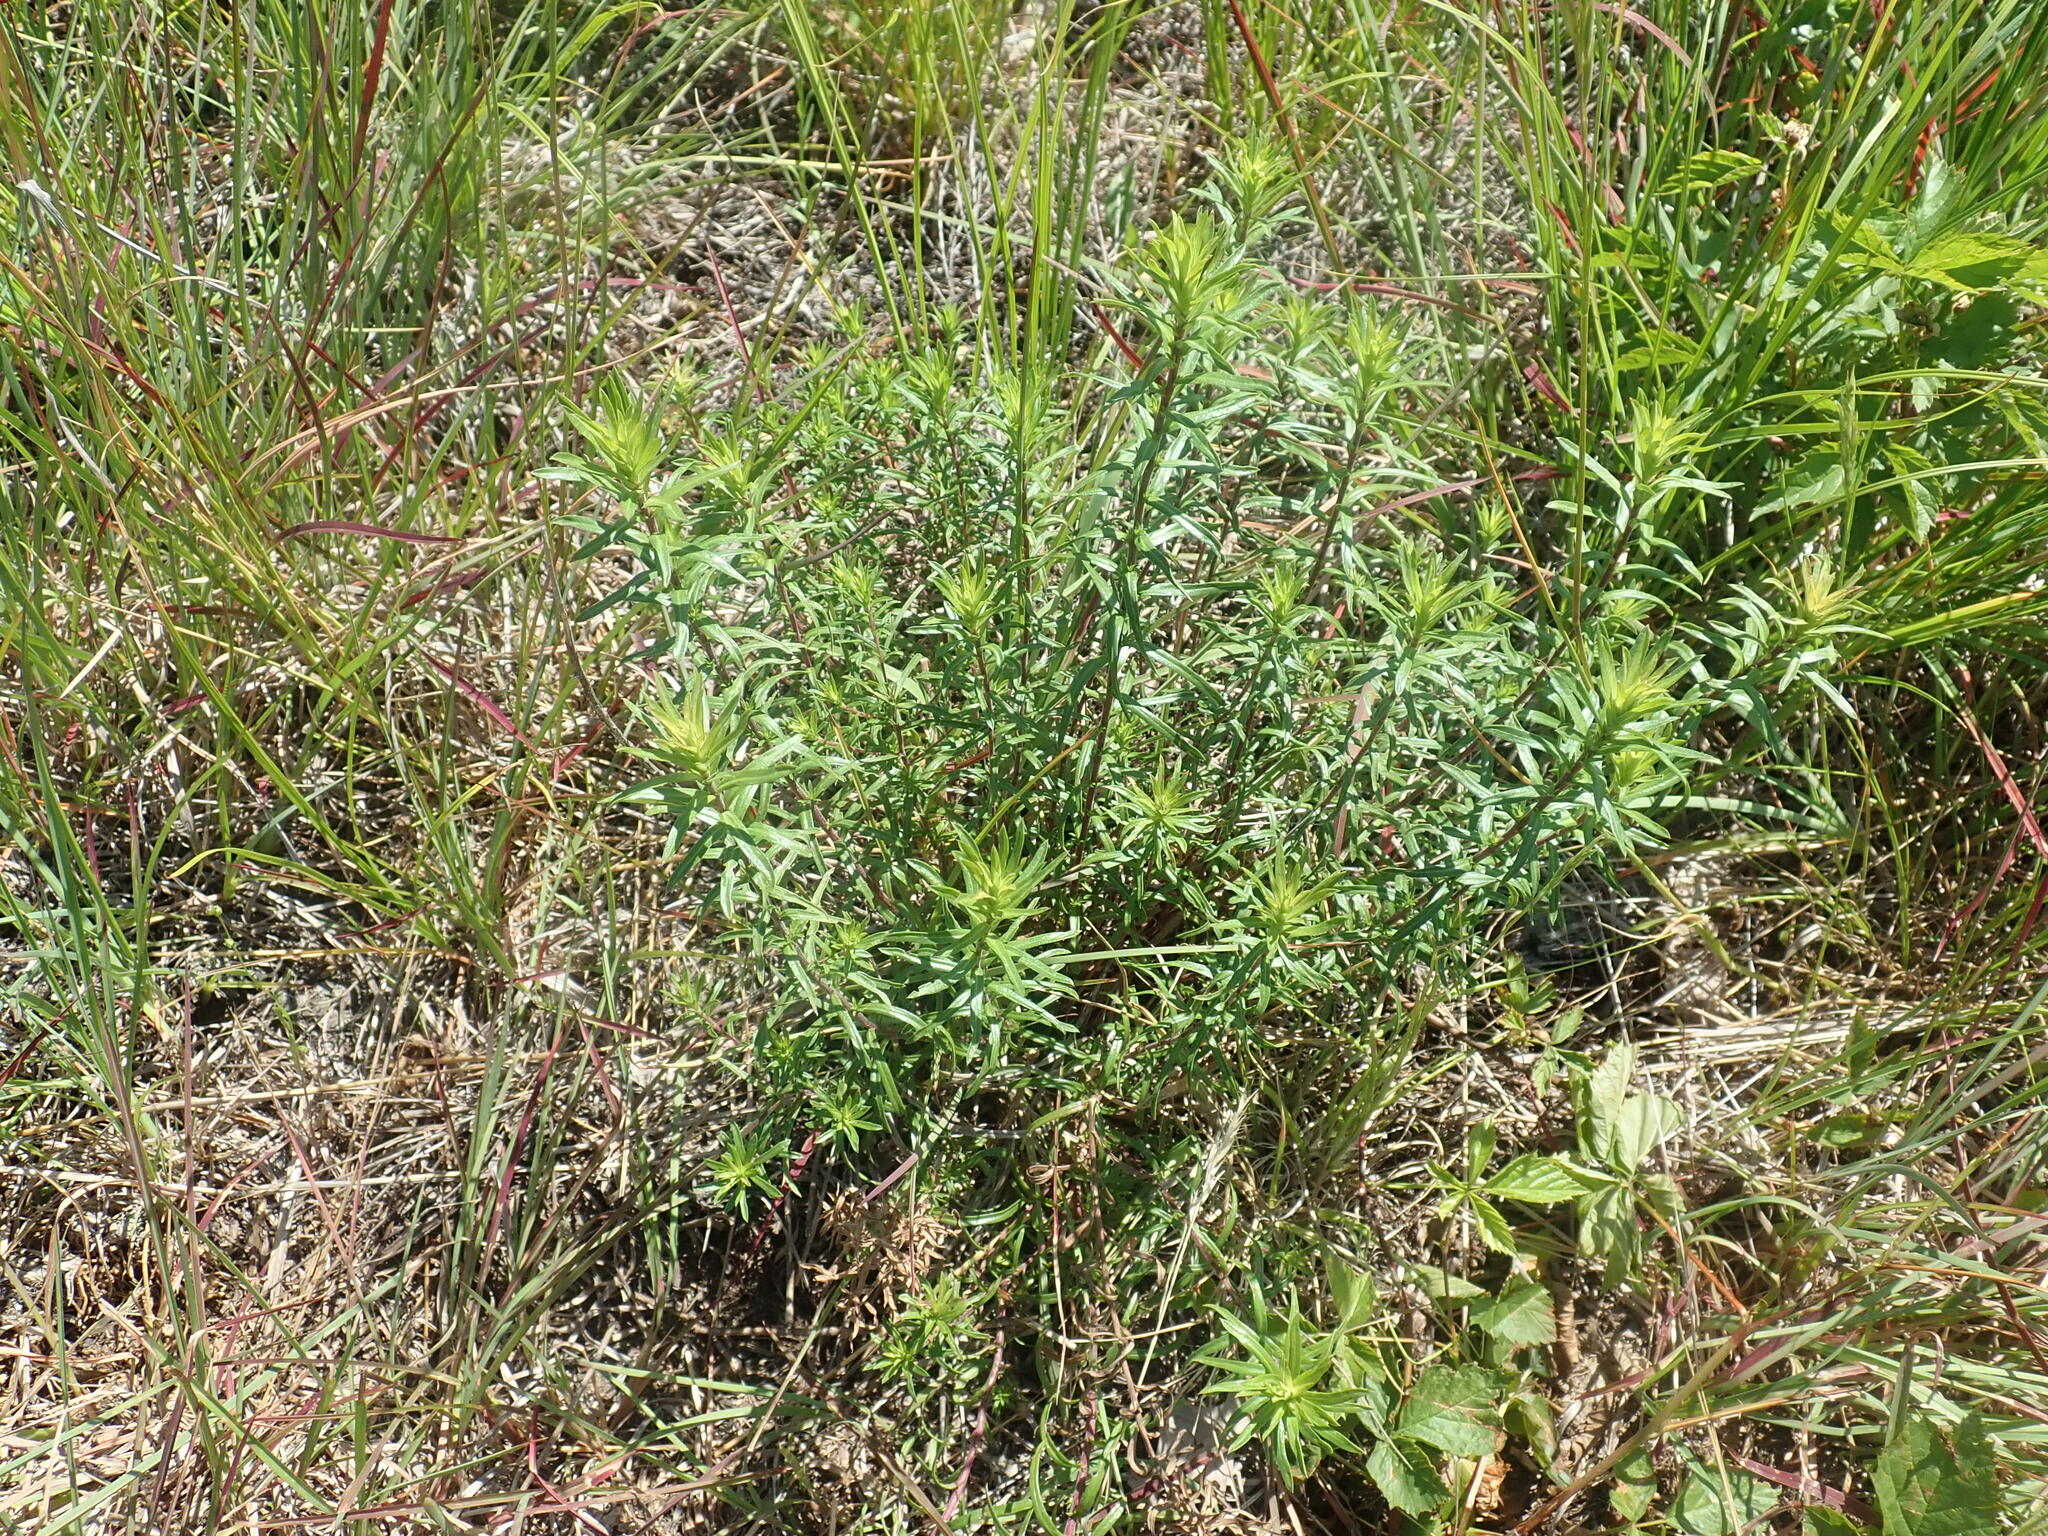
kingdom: Plantae
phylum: Tracheophyta
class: Magnoliopsida
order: Asterales
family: Asteraceae
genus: Ionactis
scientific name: Ionactis linariifolia
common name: Flax-leaf aster
